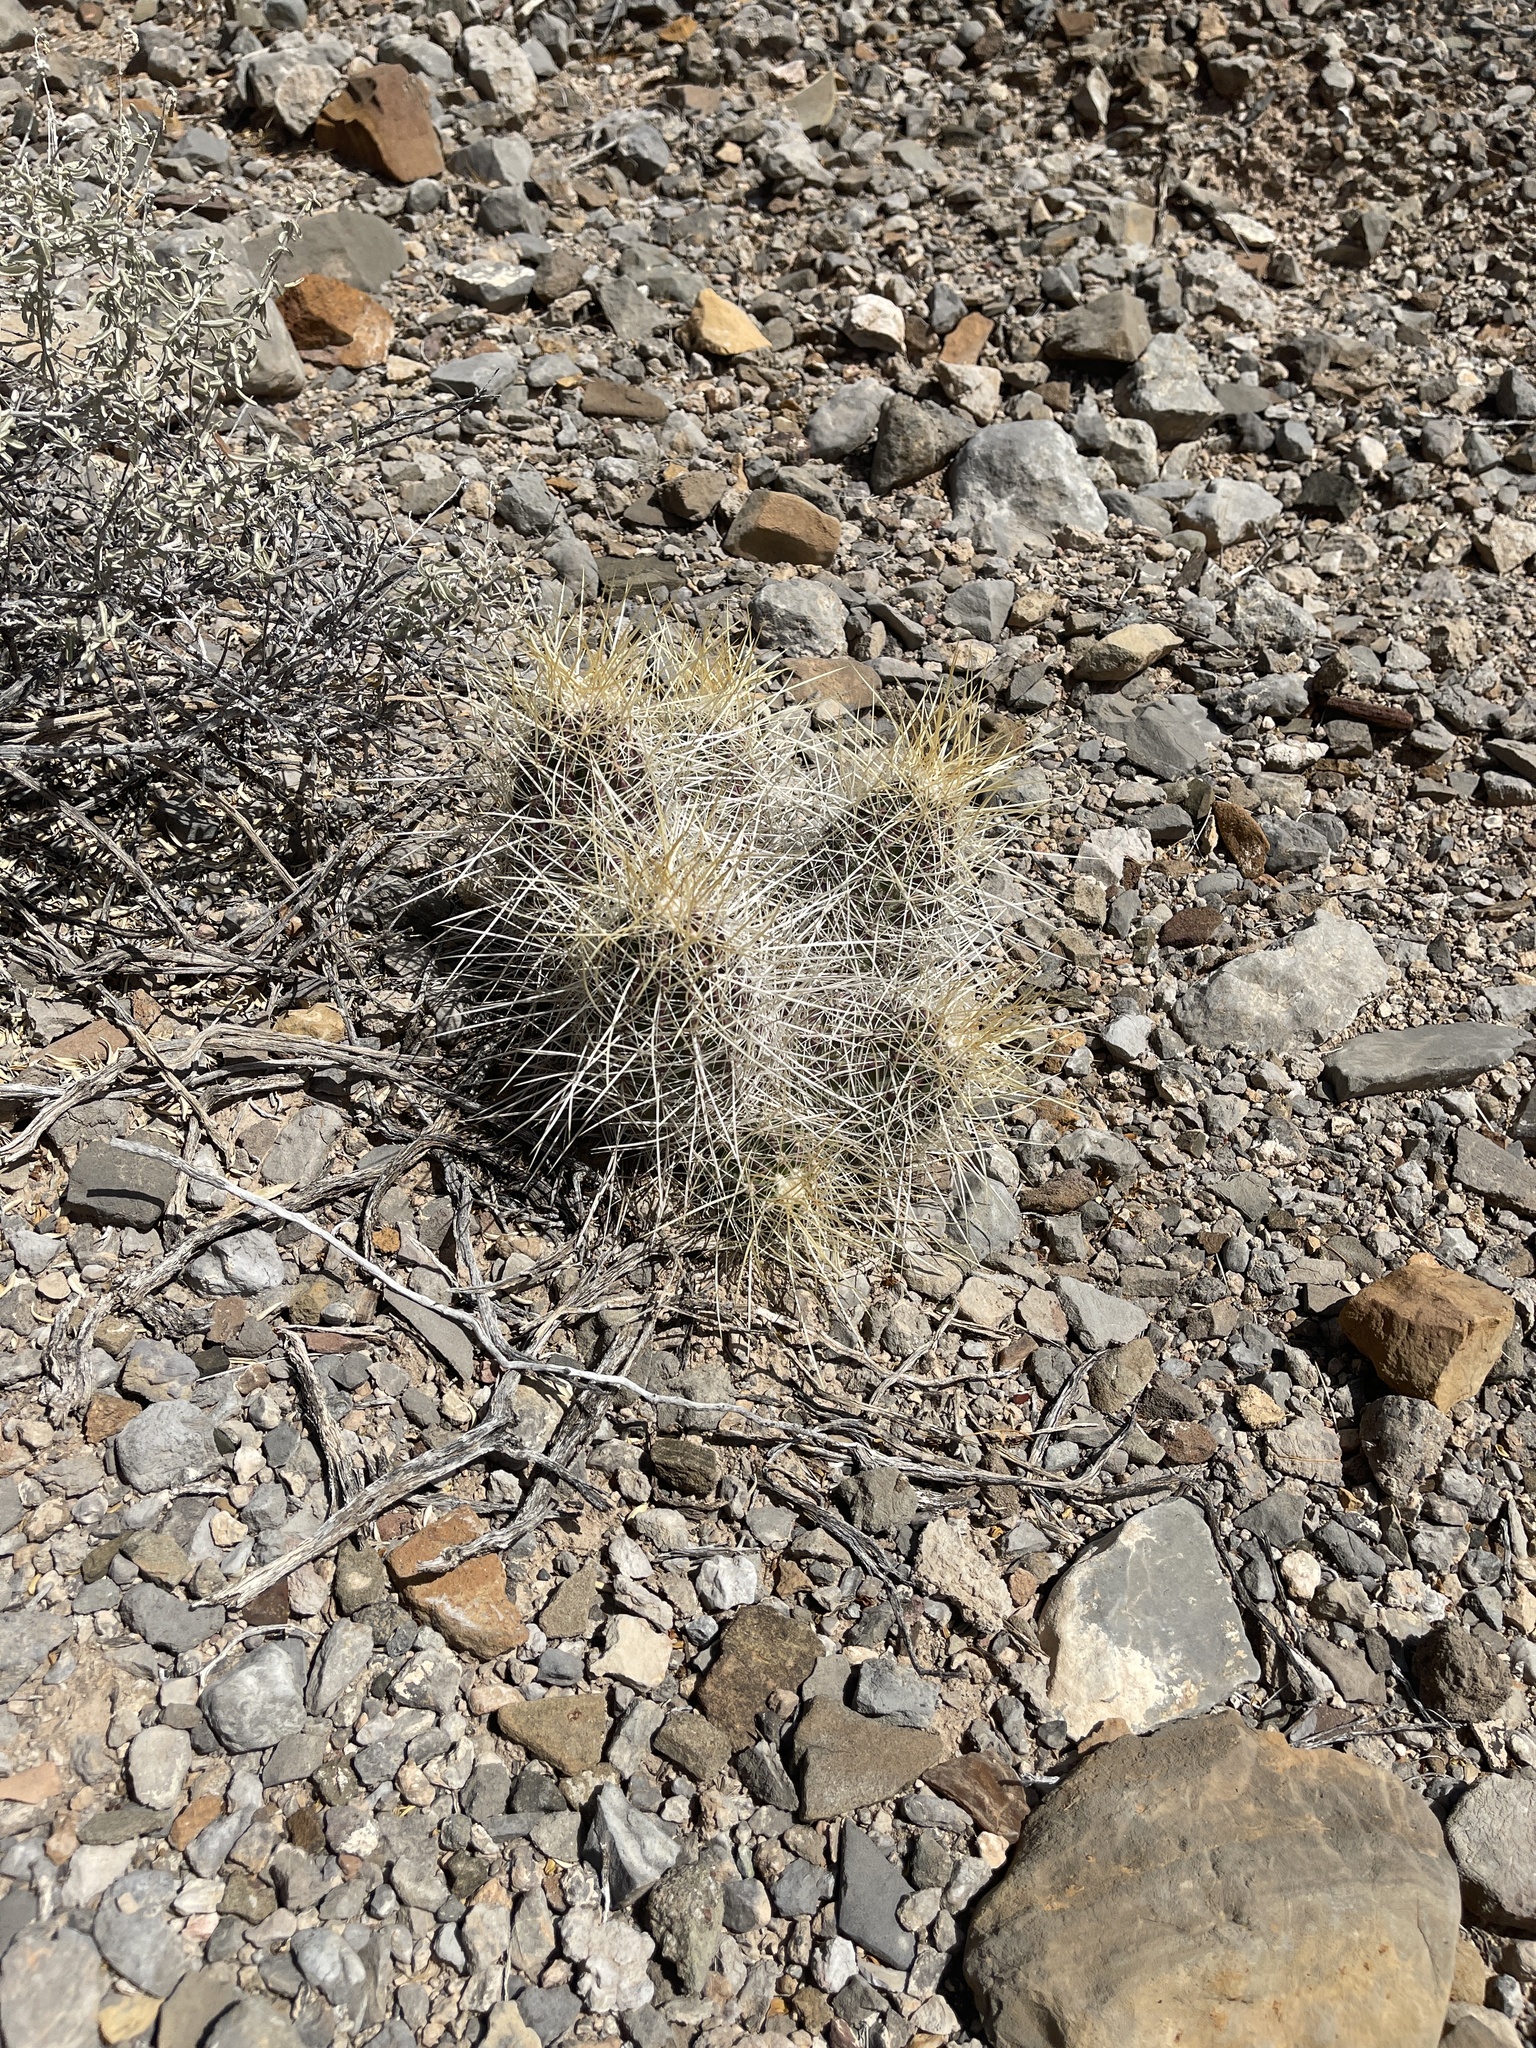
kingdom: Plantae
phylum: Tracheophyta
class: Magnoliopsida
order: Caryophyllales
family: Cactaceae
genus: Echinocereus
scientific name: Echinocereus stramineus
